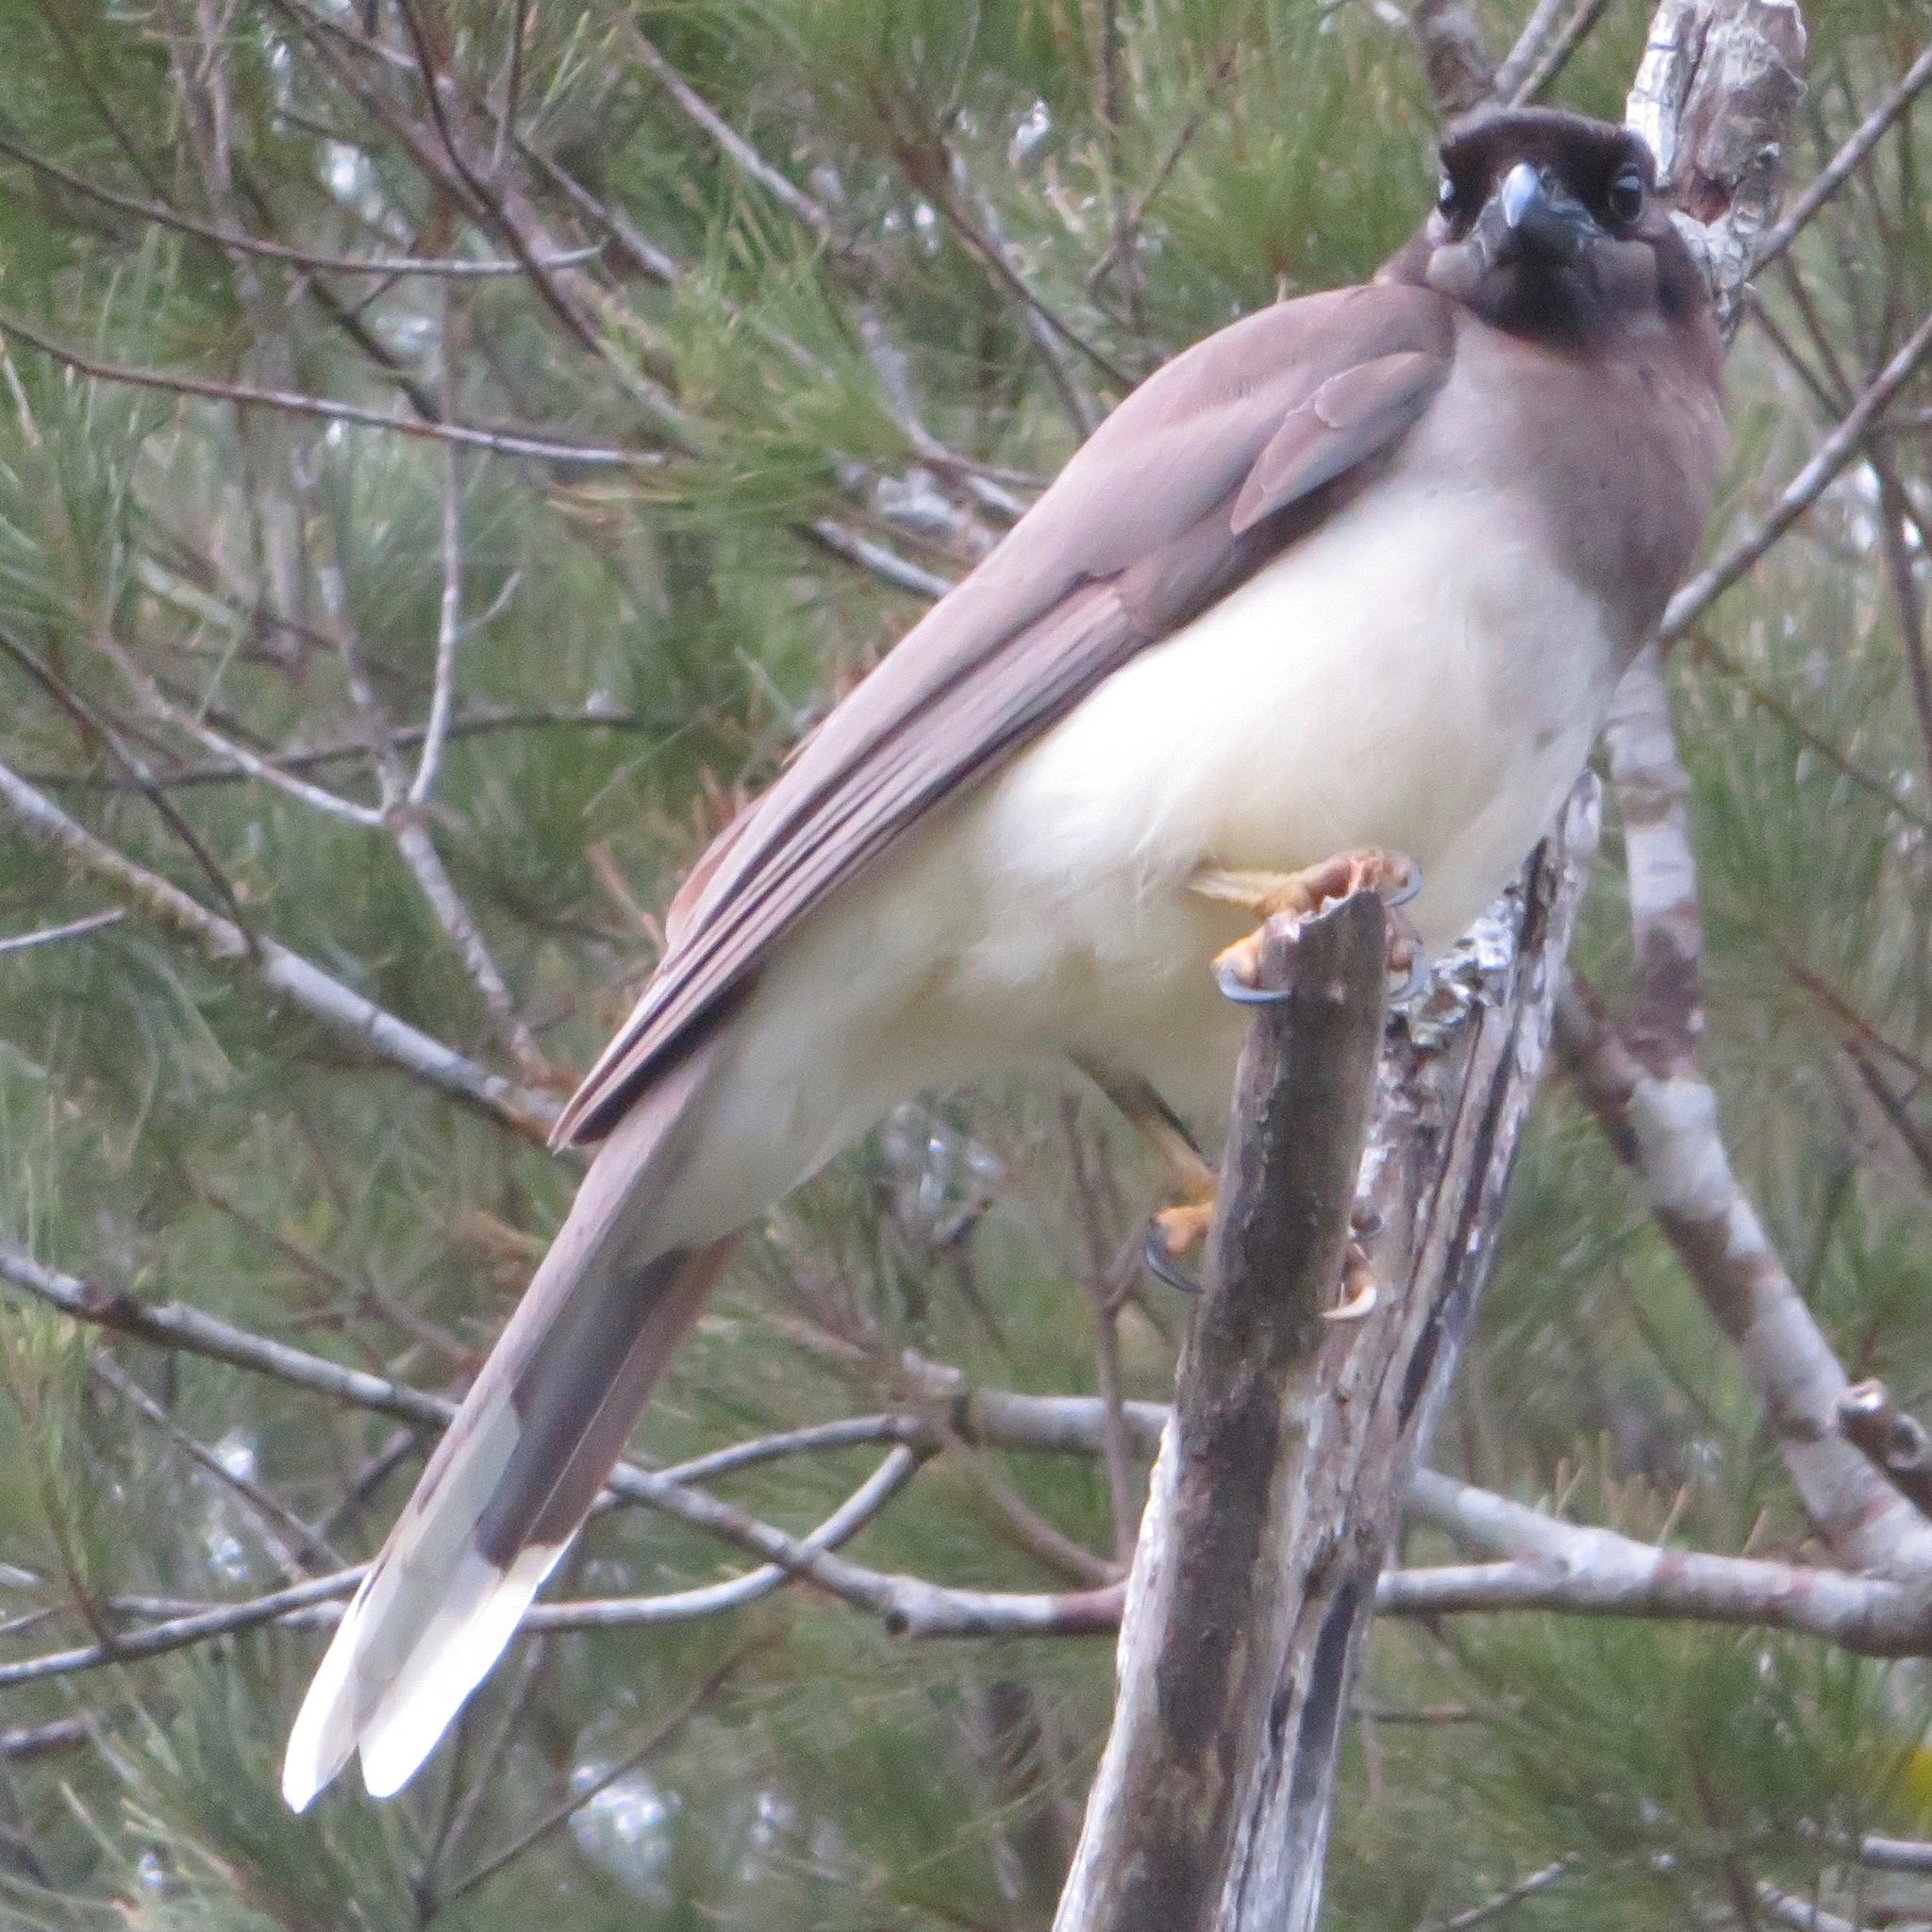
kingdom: Animalia
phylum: Chordata
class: Aves
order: Passeriformes
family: Corvidae
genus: Psilorhinus
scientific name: Psilorhinus morio
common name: Brown jay
